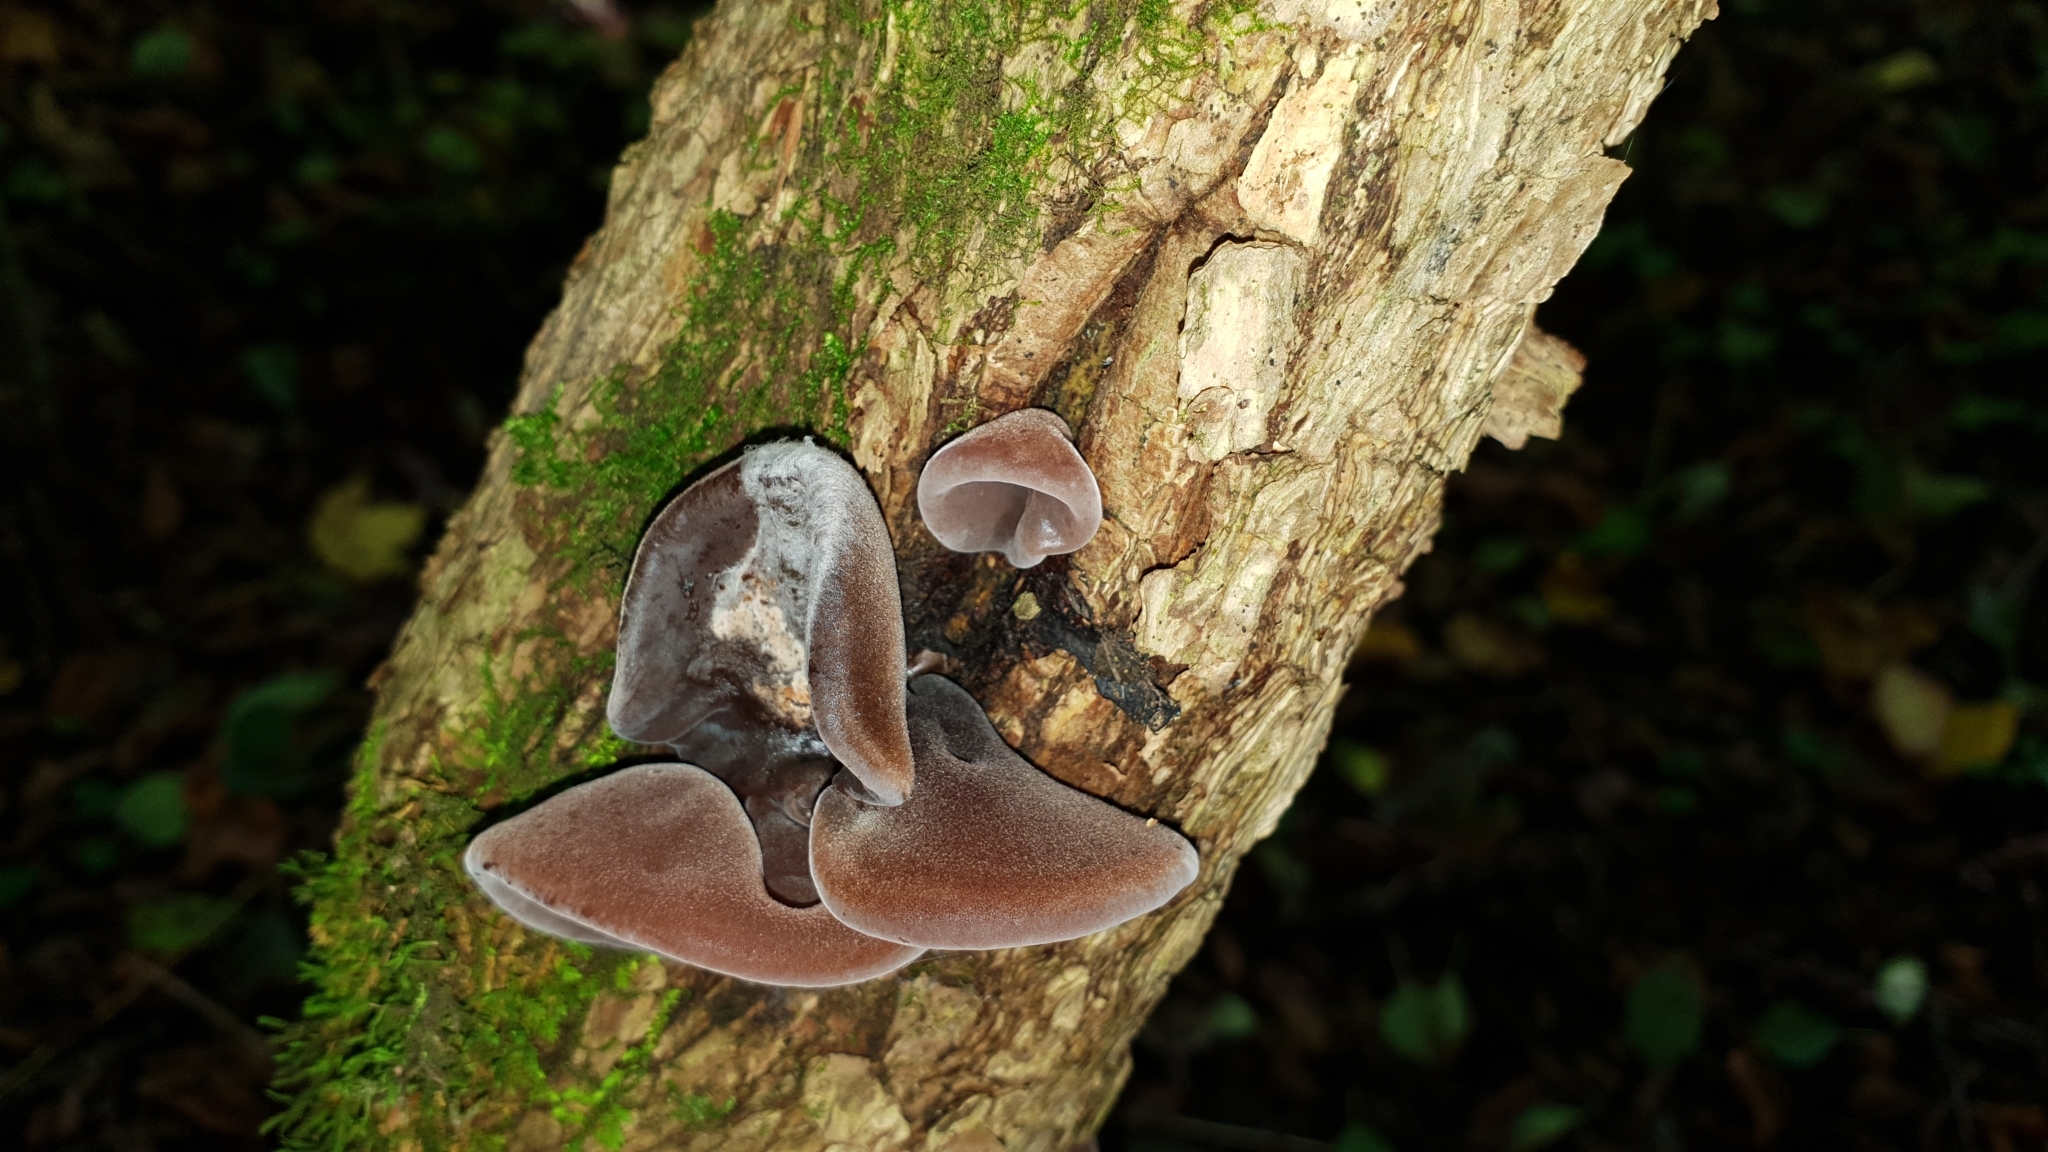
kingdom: Fungi
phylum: Basidiomycota
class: Agaricomycetes
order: Auriculariales
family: Auriculariaceae
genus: Auricularia
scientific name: Auricularia auricula-judae
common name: Jelly ear
